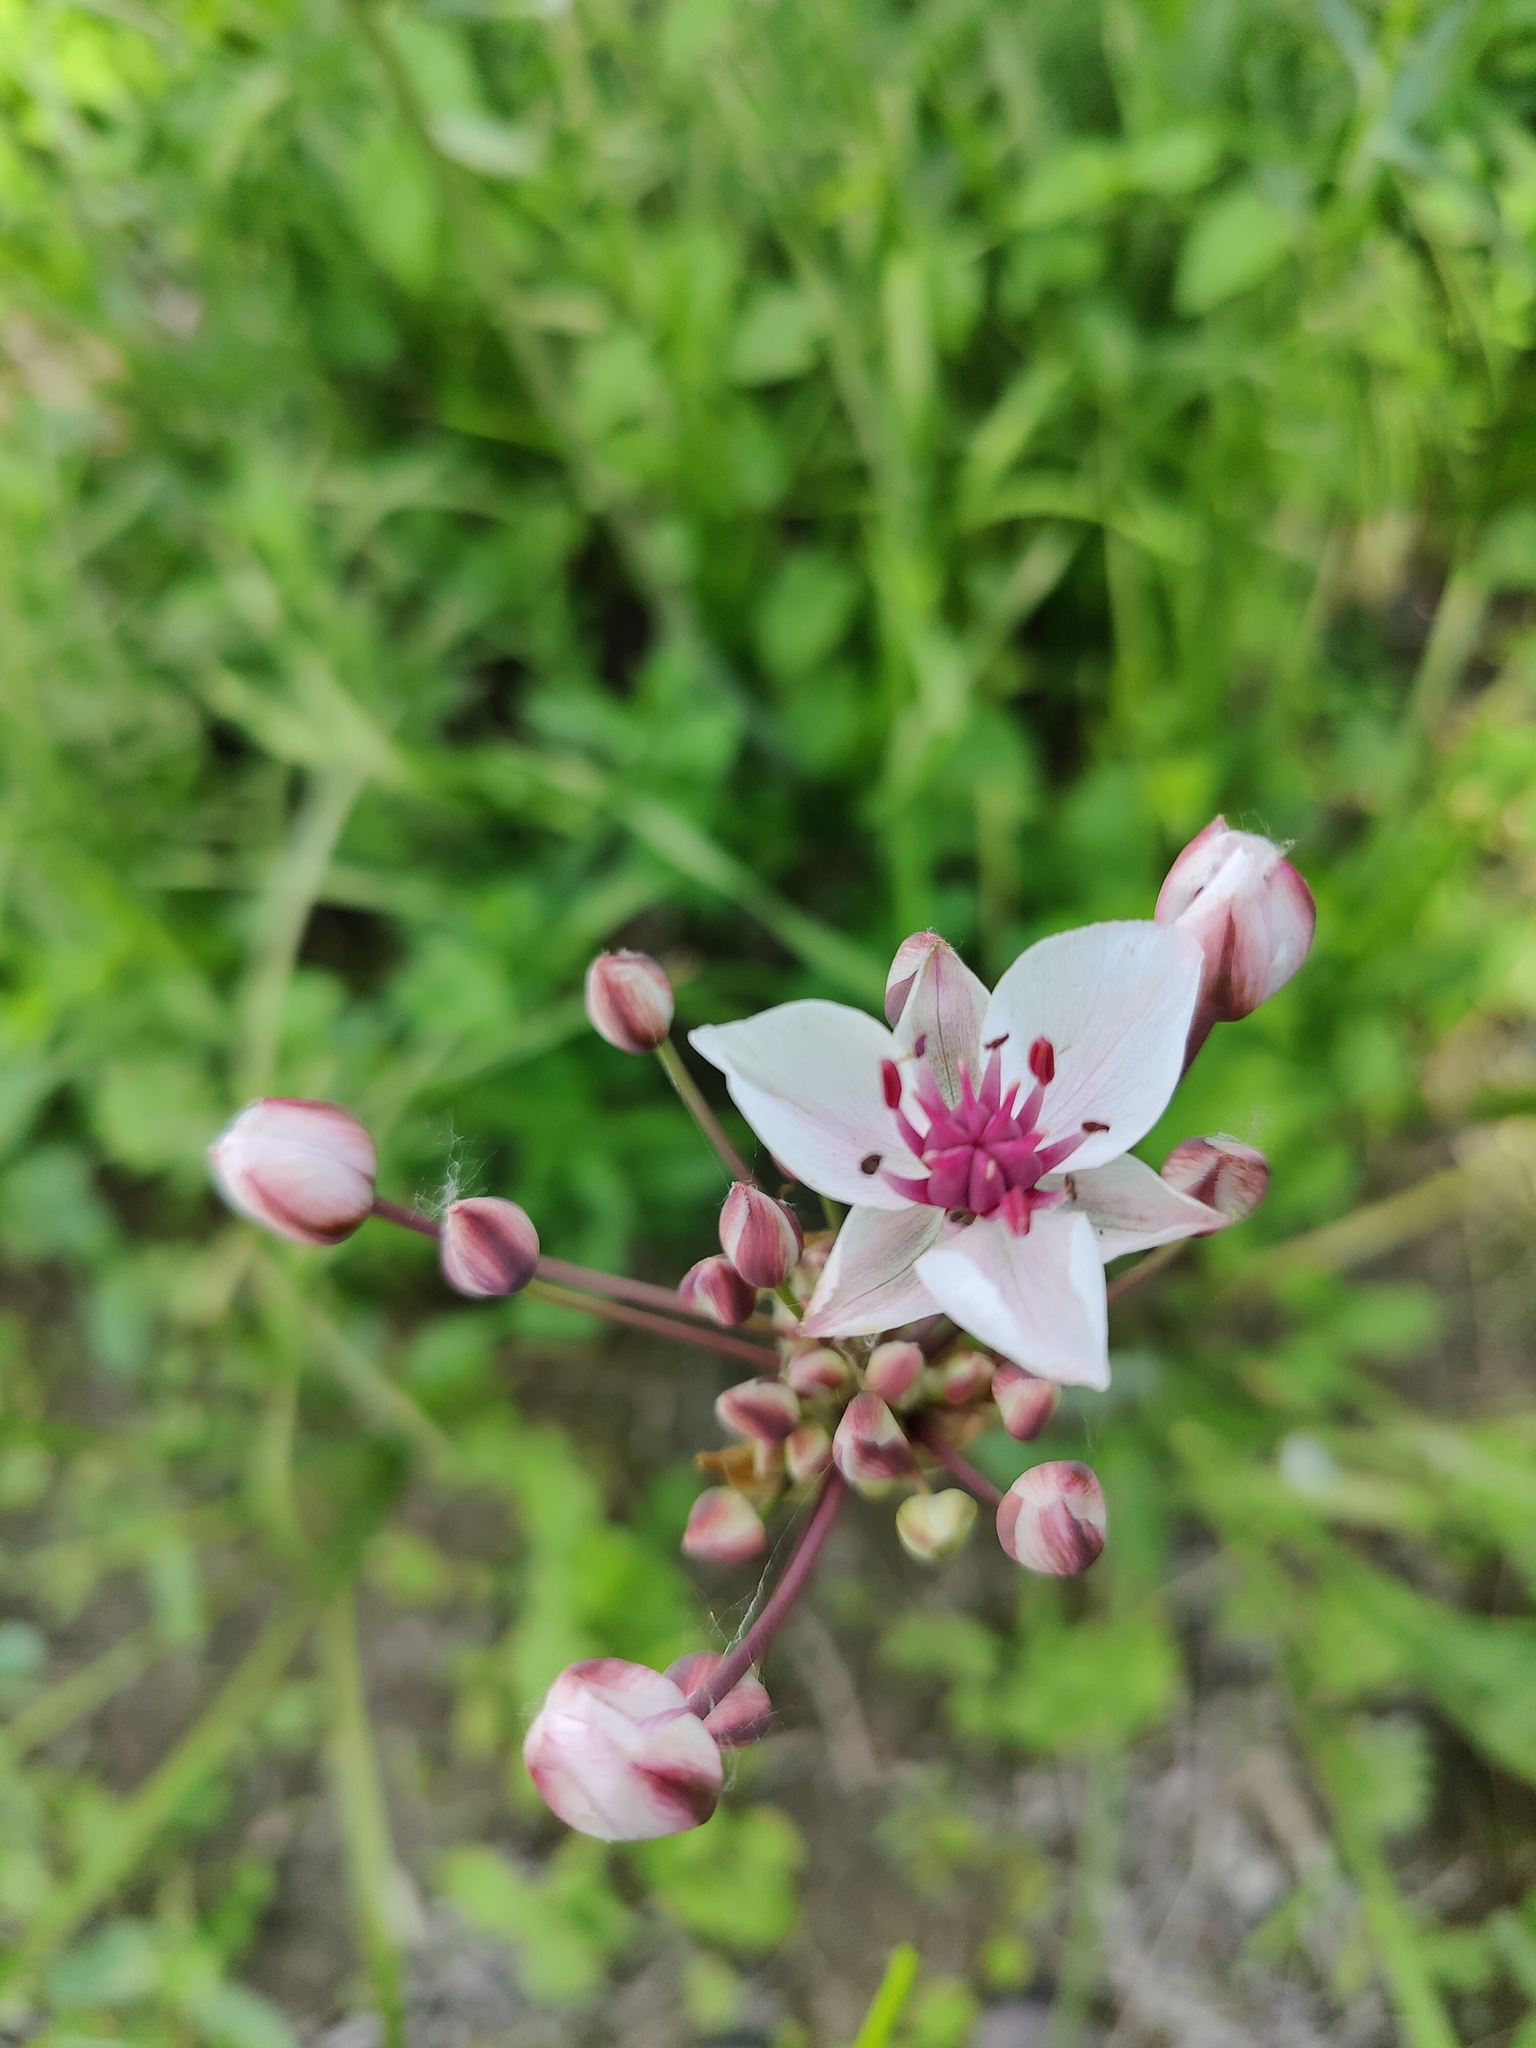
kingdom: Plantae
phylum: Tracheophyta
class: Liliopsida
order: Alismatales
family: Butomaceae
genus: Butomus
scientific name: Butomus umbellatus
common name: Flowering-rush
